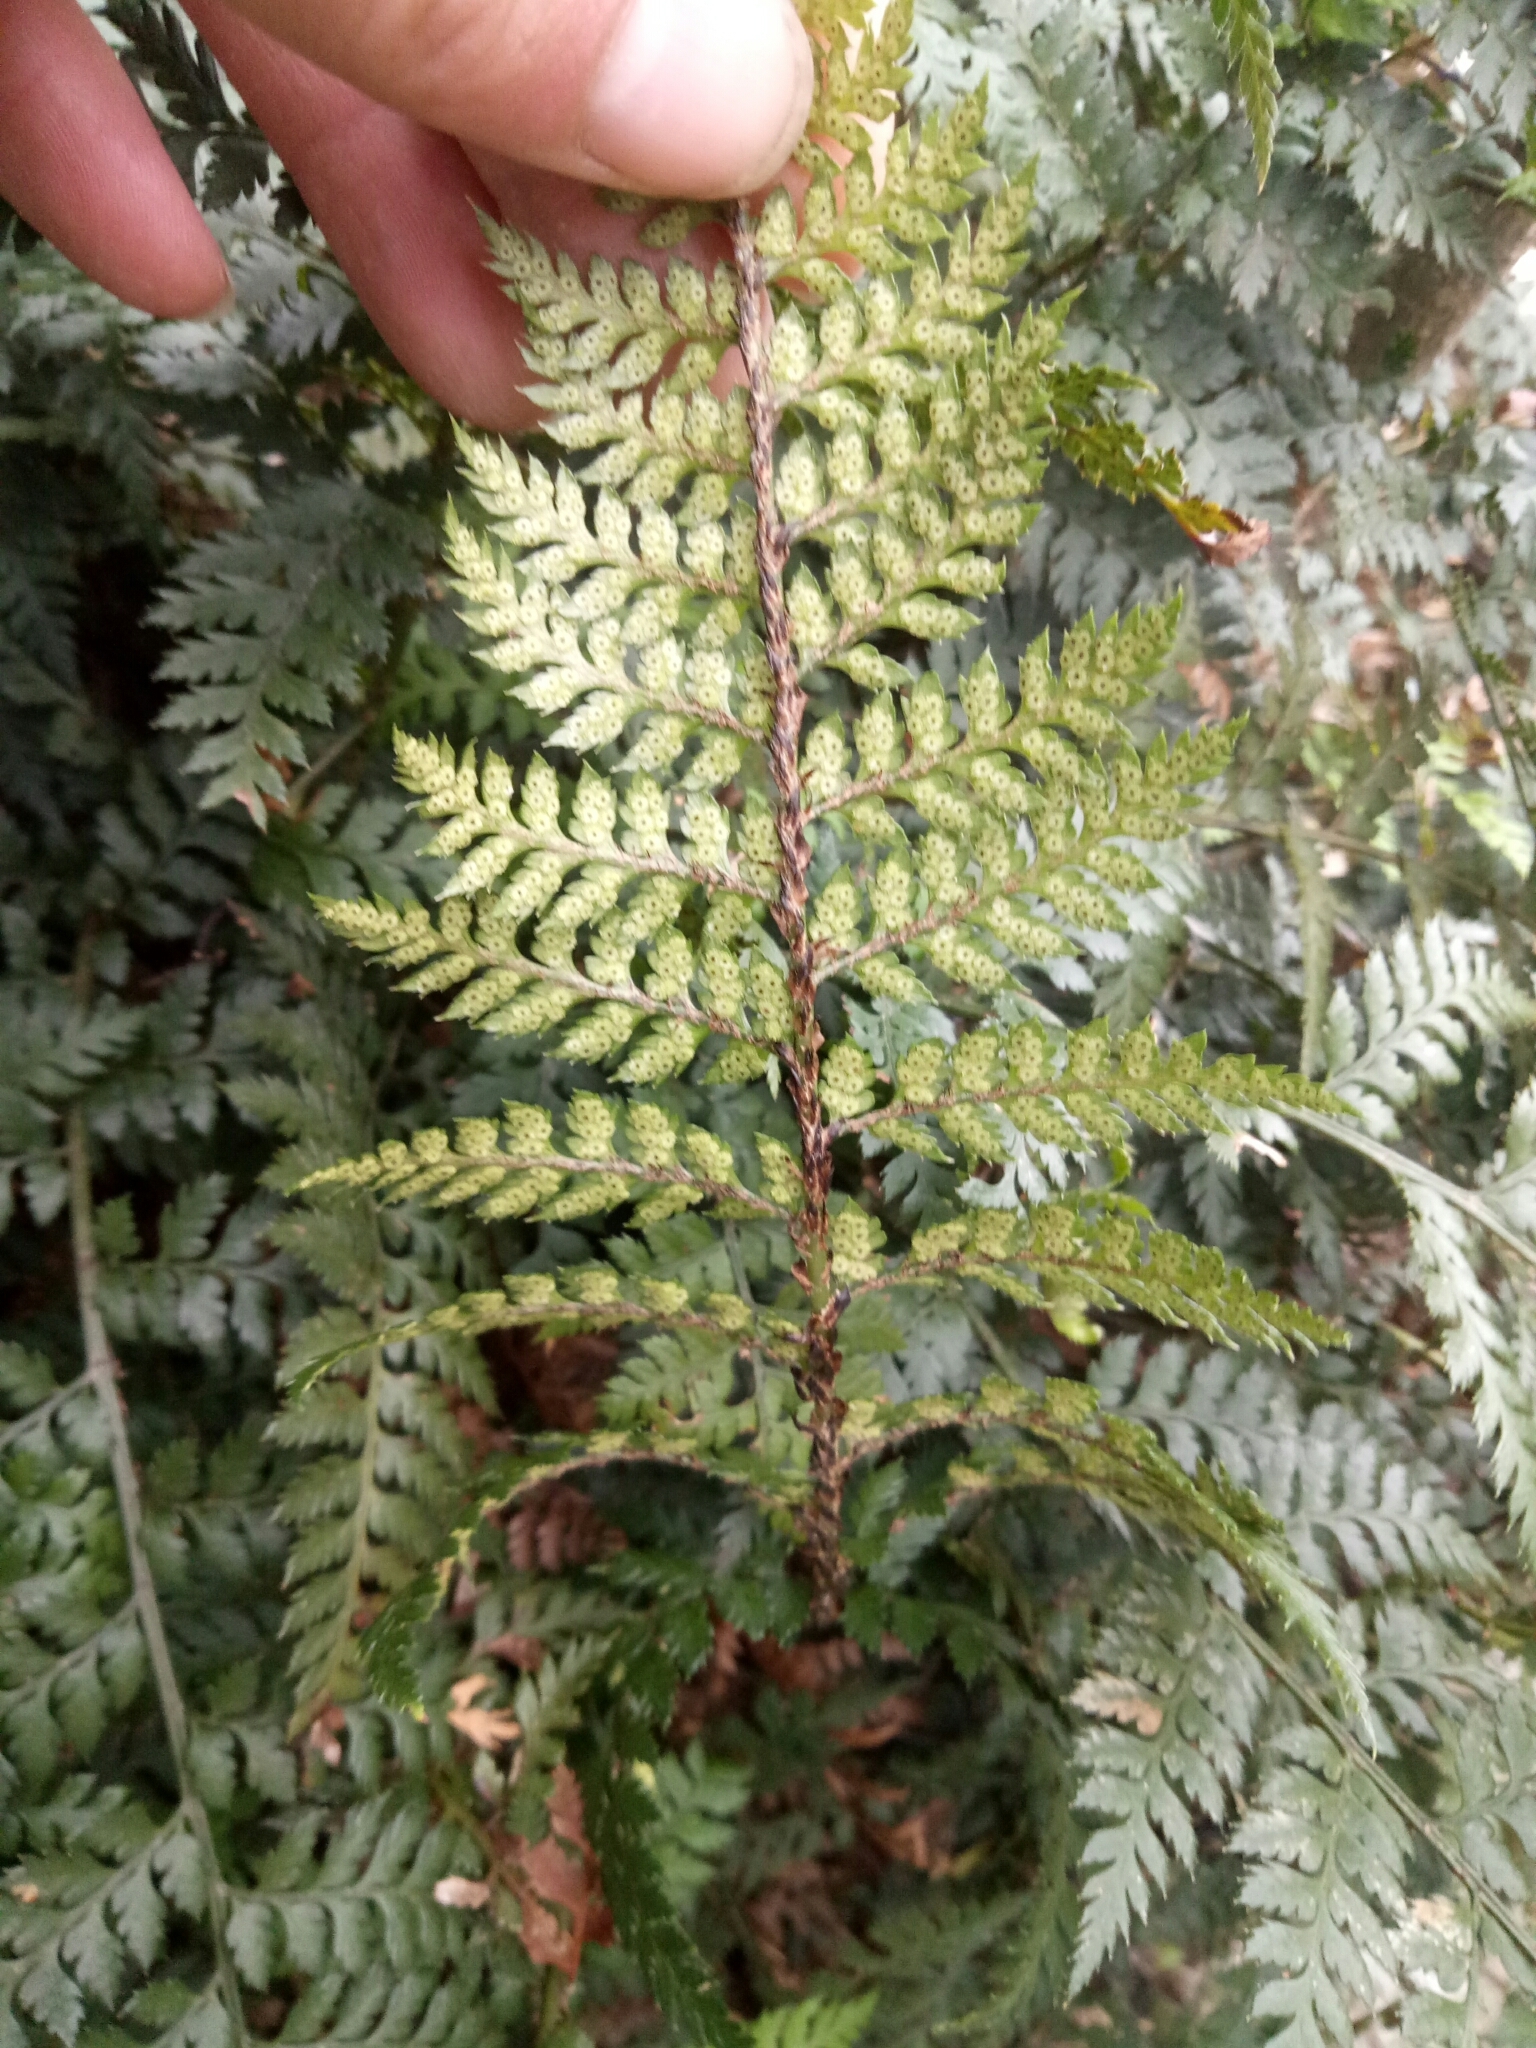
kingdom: Plantae
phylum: Tracheophyta
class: Polypodiopsida
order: Polypodiales
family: Dryopteridaceae
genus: Polystichum
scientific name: Polystichum oculatum
